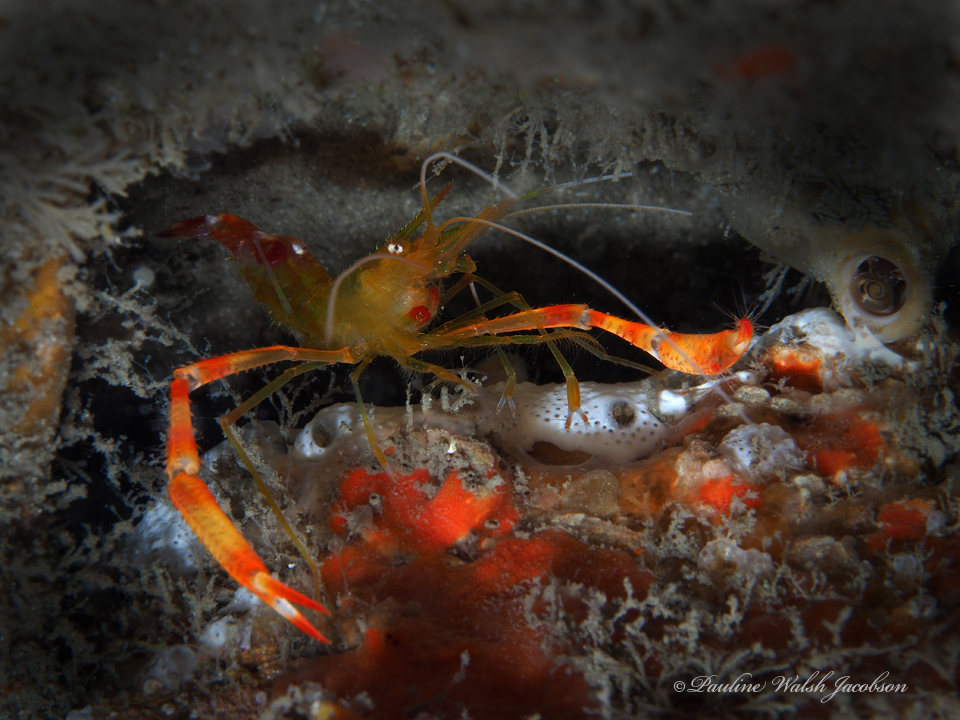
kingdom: Animalia
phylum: Arthropoda
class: Malacostraca
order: Decapoda
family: Stenopodidae
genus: Stenopus
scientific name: Stenopus scutellatus
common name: Golden coral shrimp
